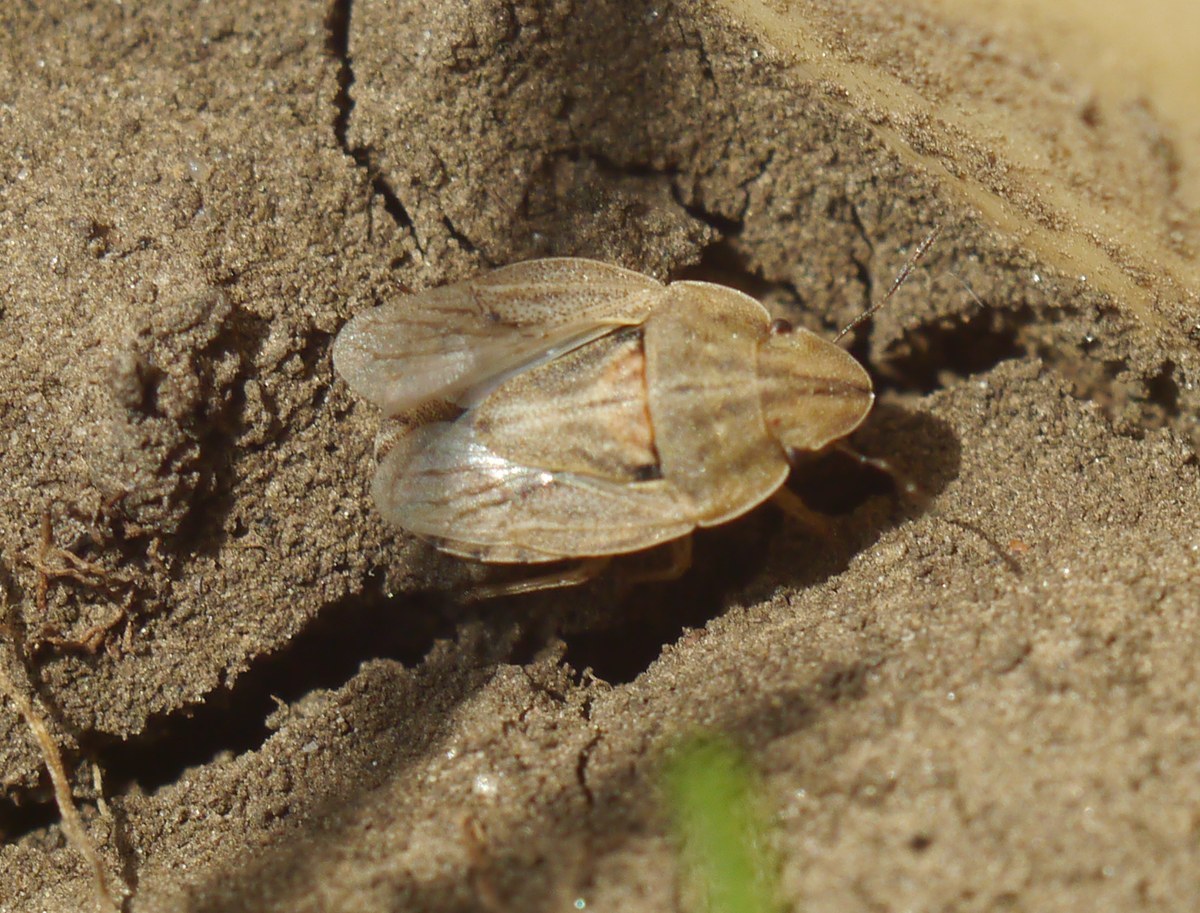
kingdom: Animalia
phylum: Arthropoda
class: Insecta
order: Hemiptera
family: Pentatomidae
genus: Sciocoris
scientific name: Sciocoris sulcatus
